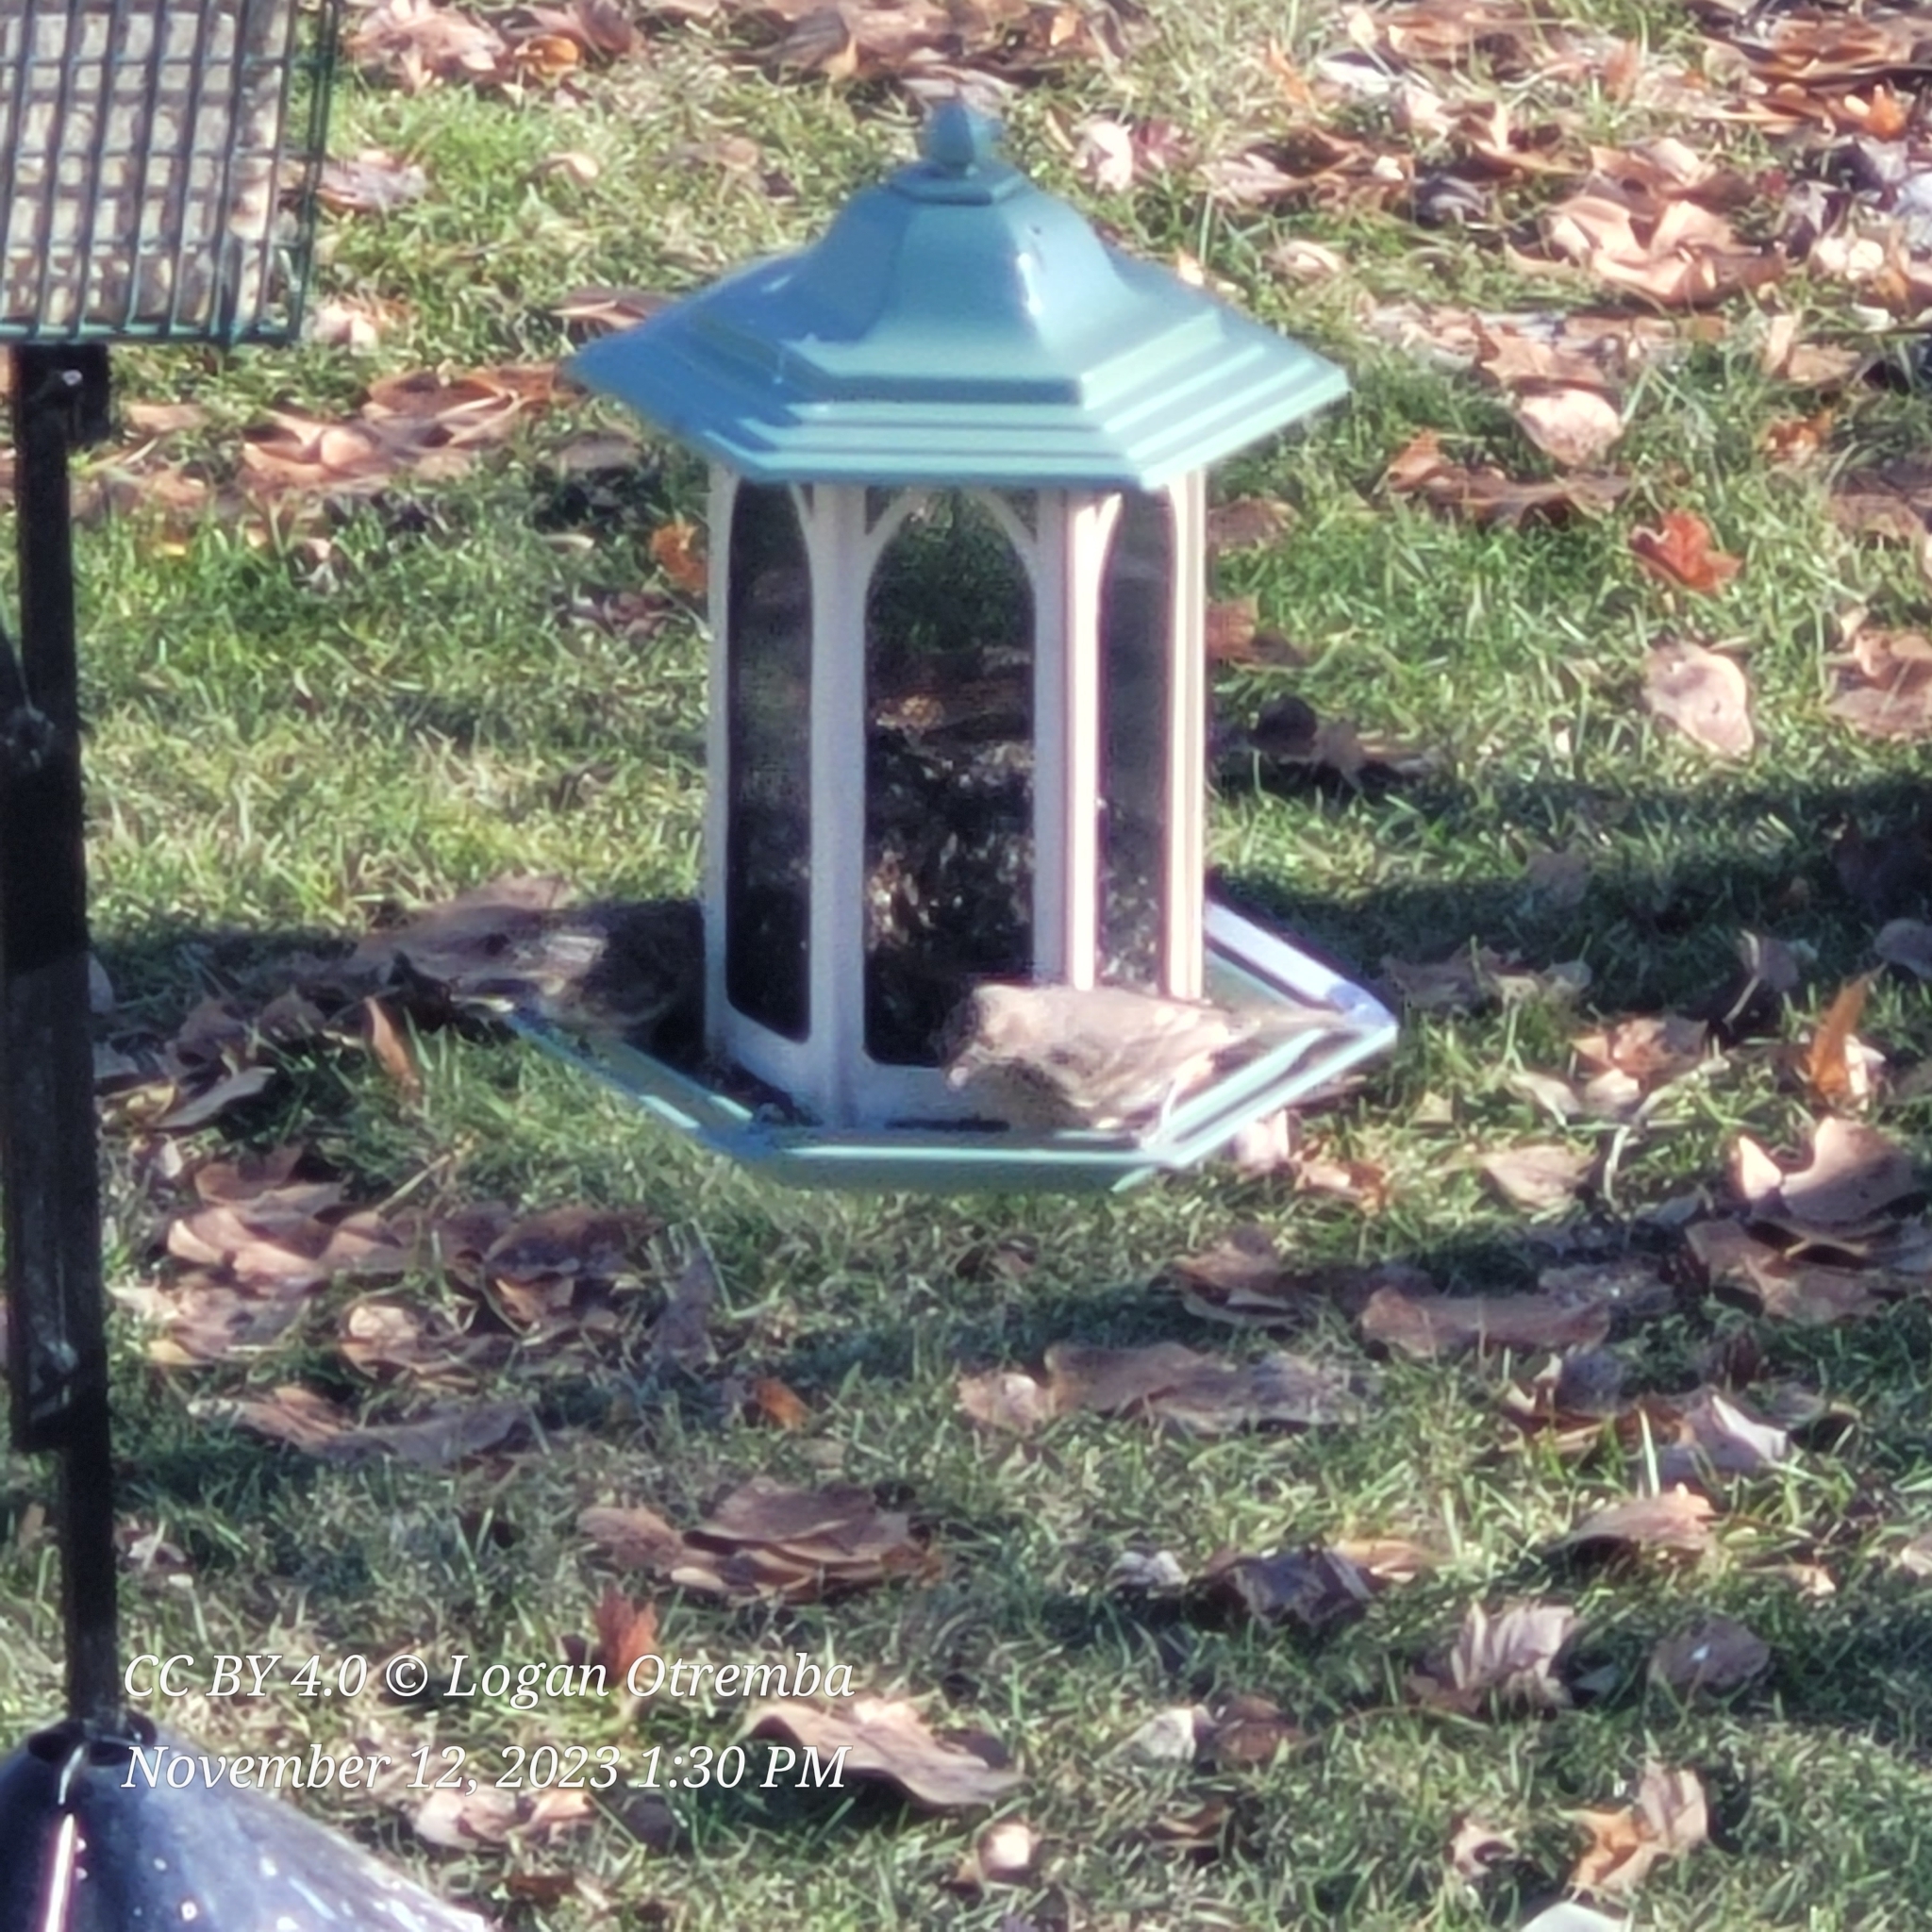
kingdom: Animalia
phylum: Chordata
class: Aves
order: Passeriformes
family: Fringillidae
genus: Spinus
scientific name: Spinus pinus
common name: Pine siskin
